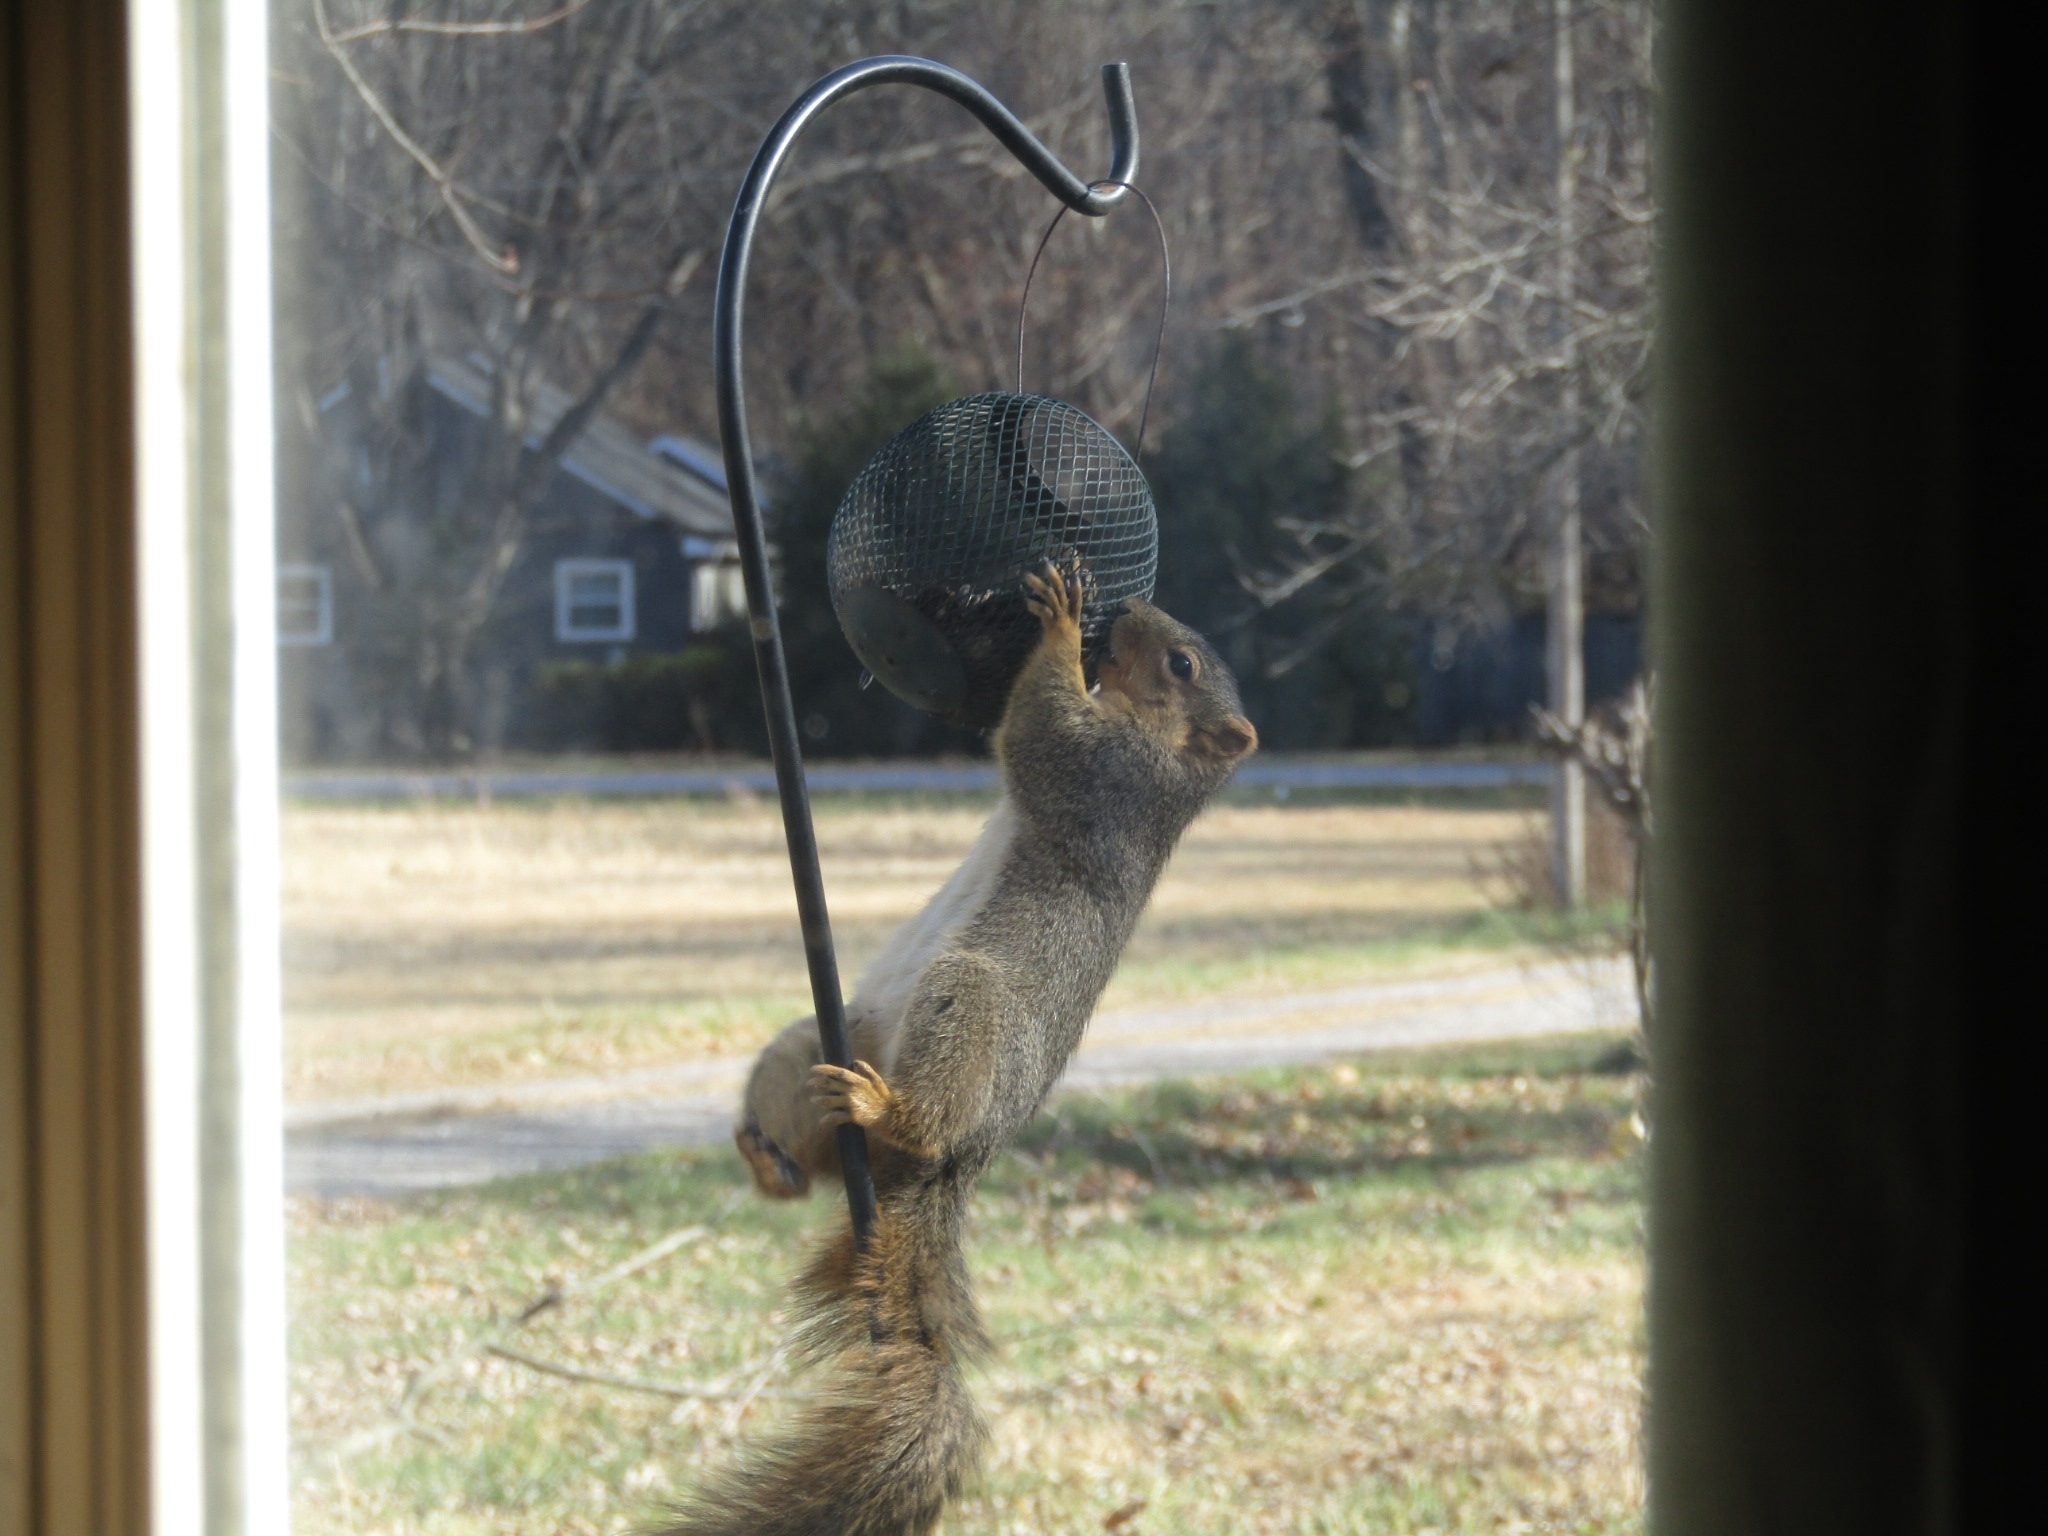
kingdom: Animalia
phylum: Chordata
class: Mammalia
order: Rodentia
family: Sciuridae
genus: Sciurus
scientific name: Sciurus niger
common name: Fox squirrel
